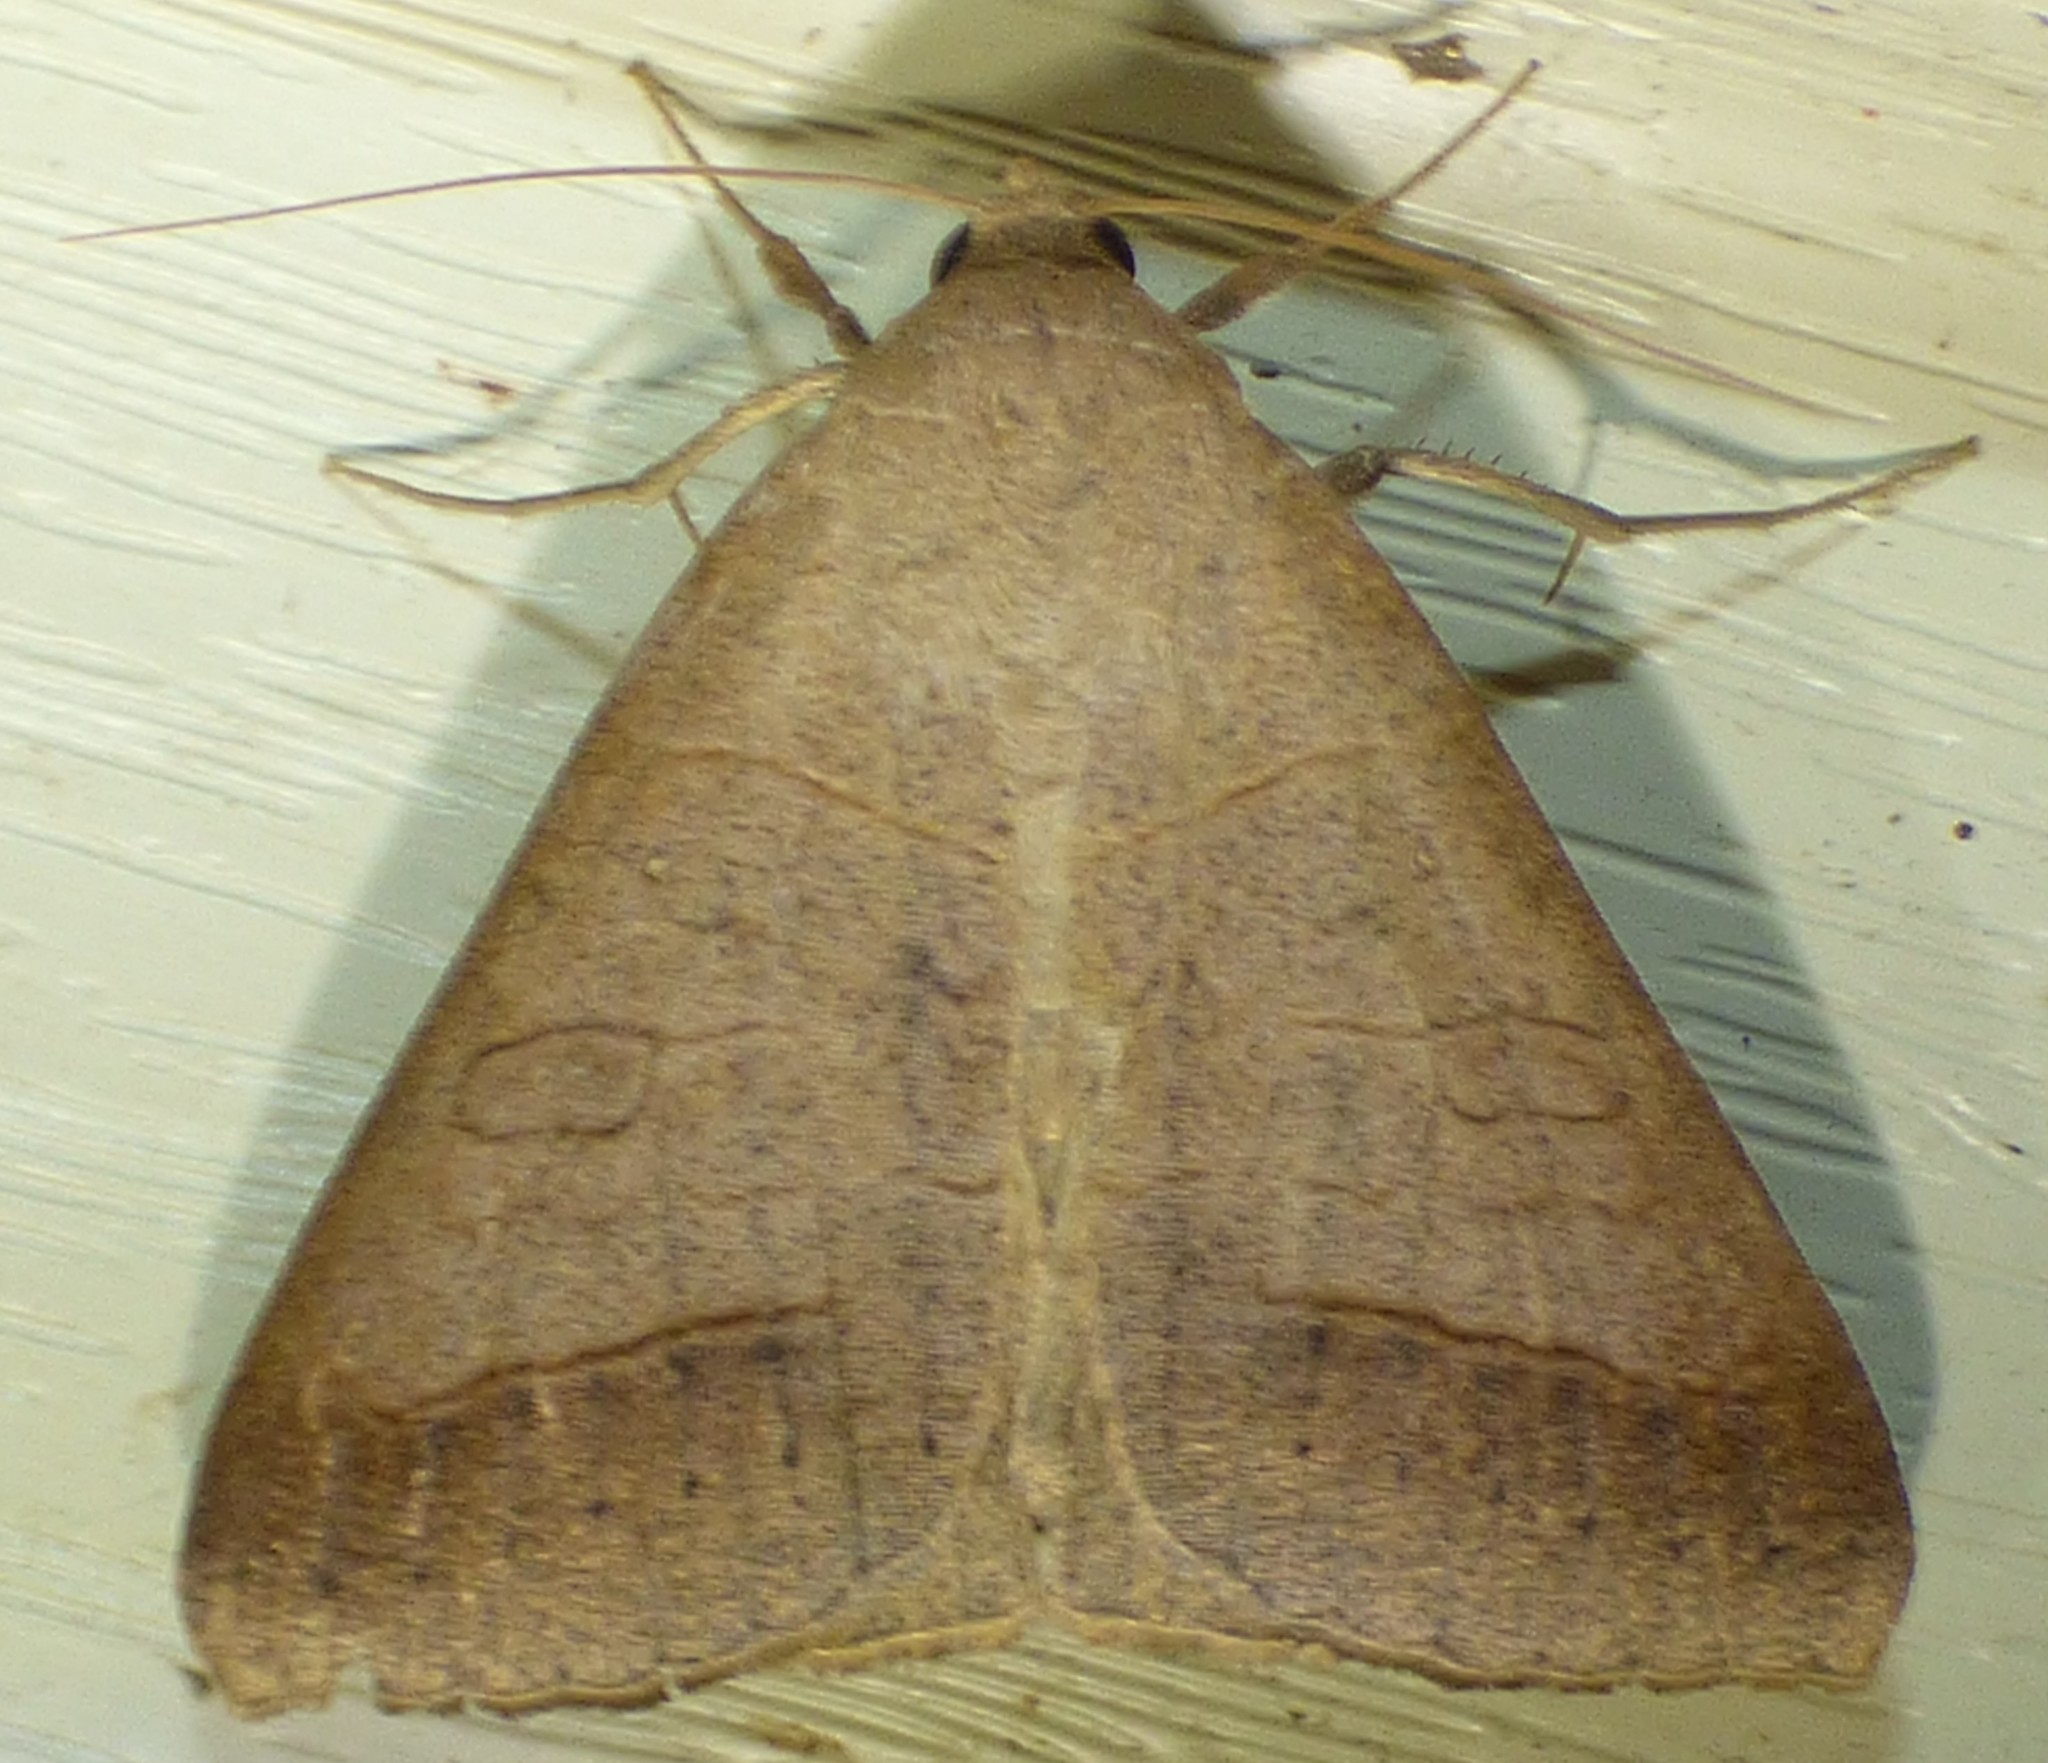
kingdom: Animalia
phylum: Arthropoda
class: Insecta
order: Lepidoptera
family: Erebidae
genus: Mocis
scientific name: Mocis marcida
